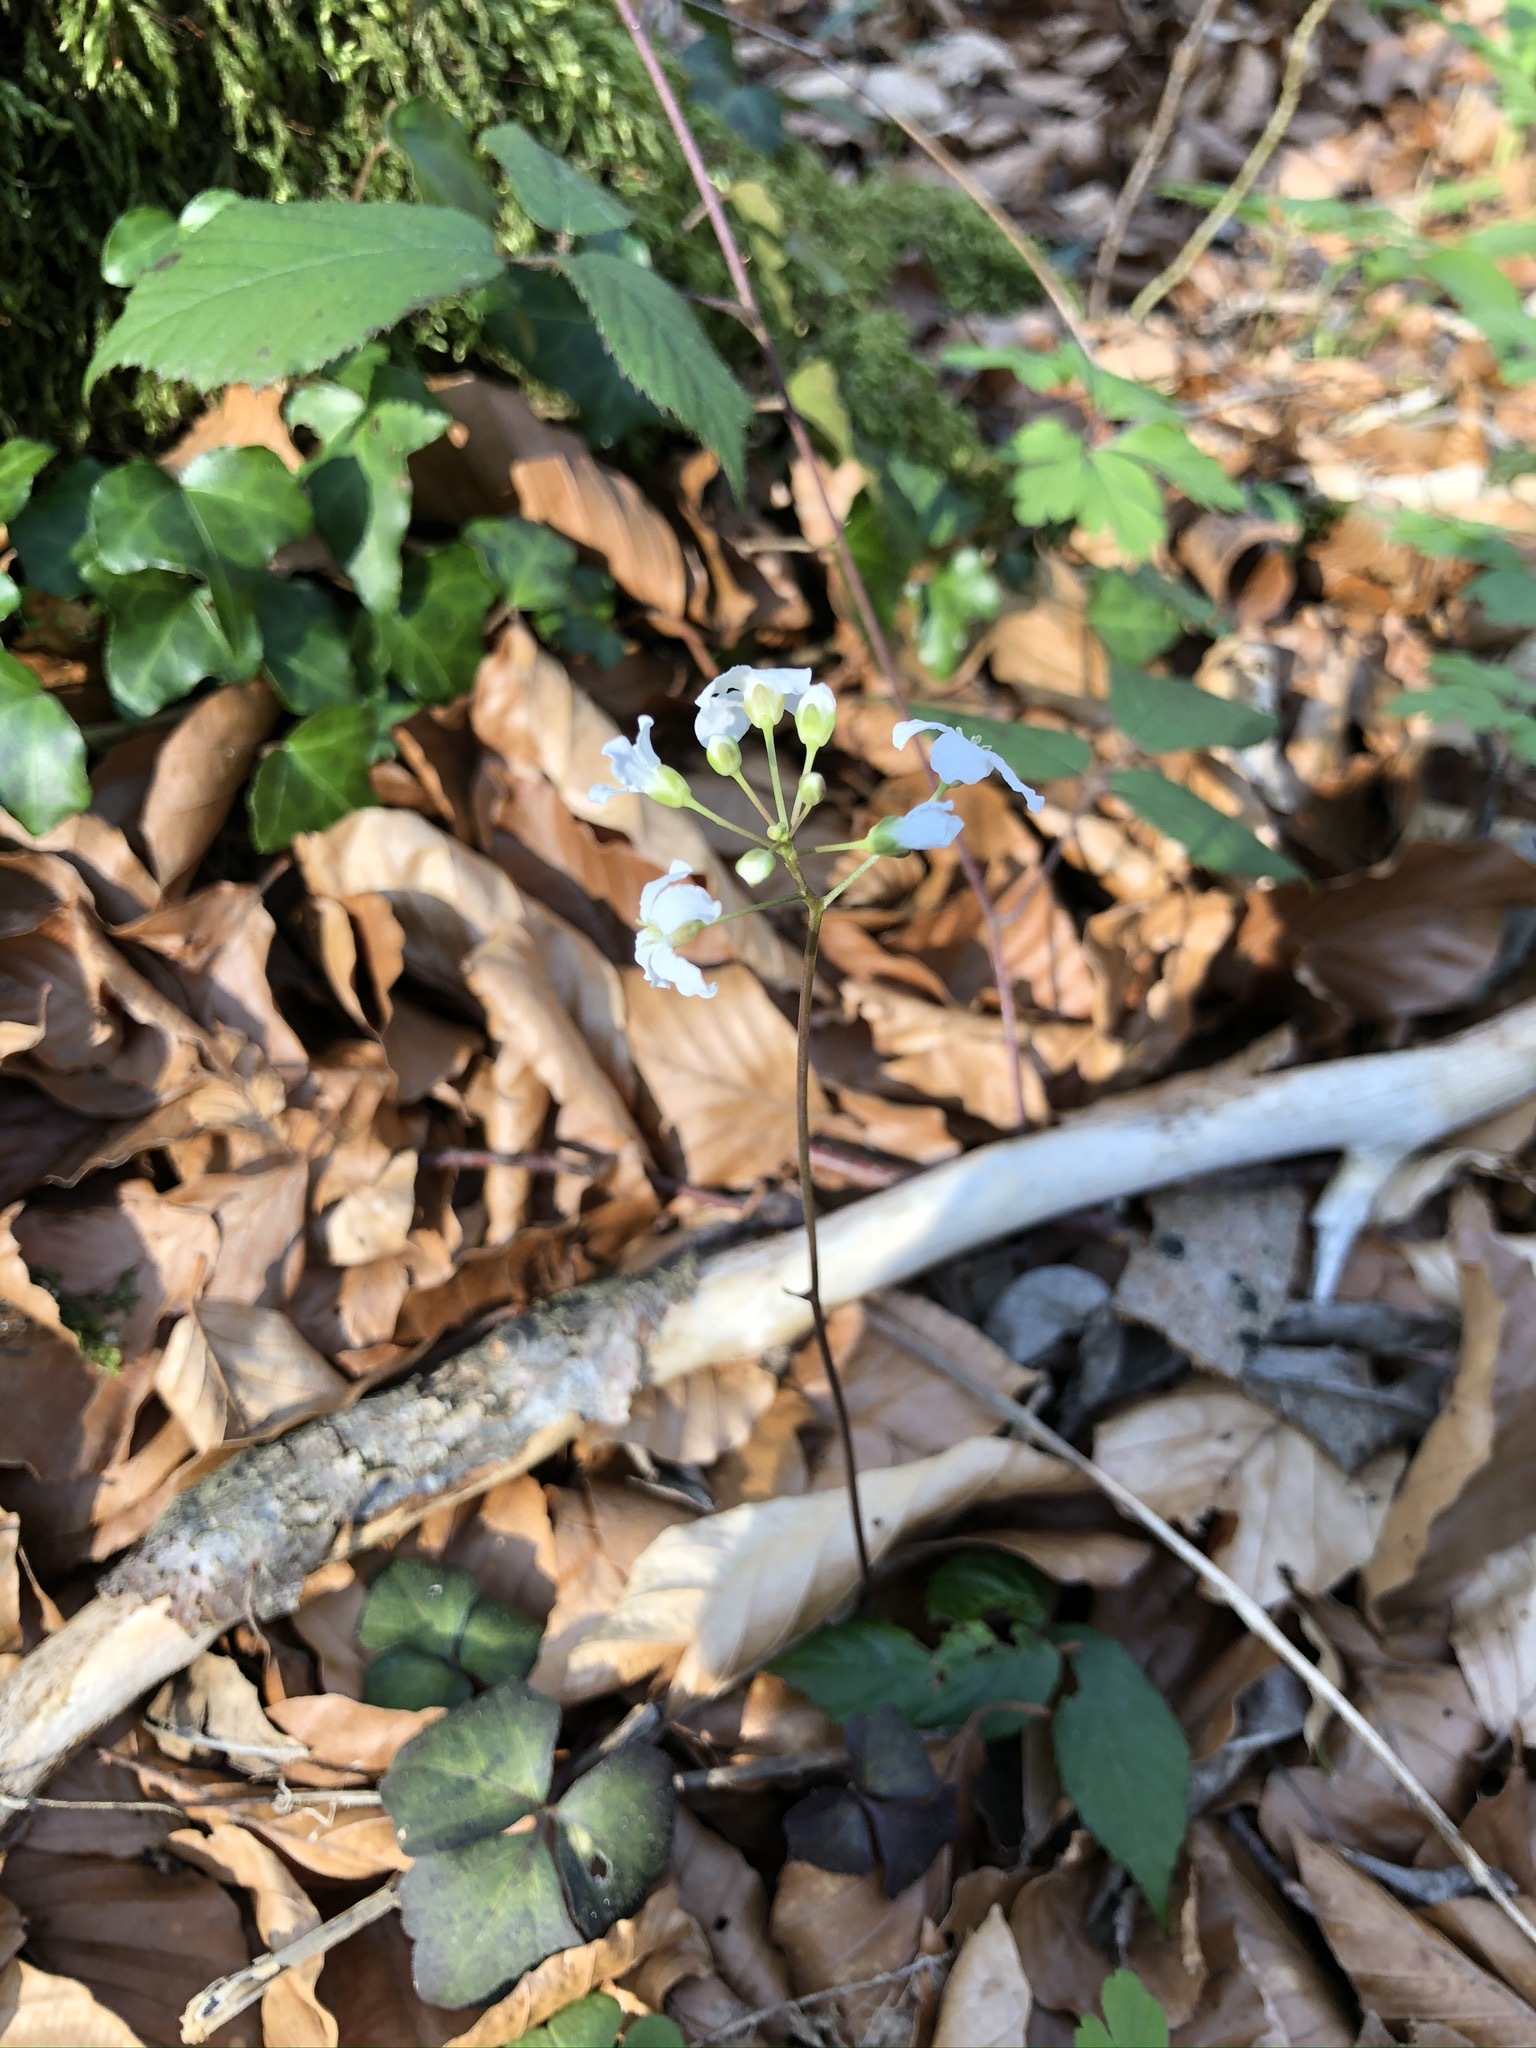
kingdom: Plantae
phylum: Tracheophyta
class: Magnoliopsida
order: Brassicales
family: Brassicaceae
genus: Cardamine
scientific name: Cardamine trifolia
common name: Trefoil cress
